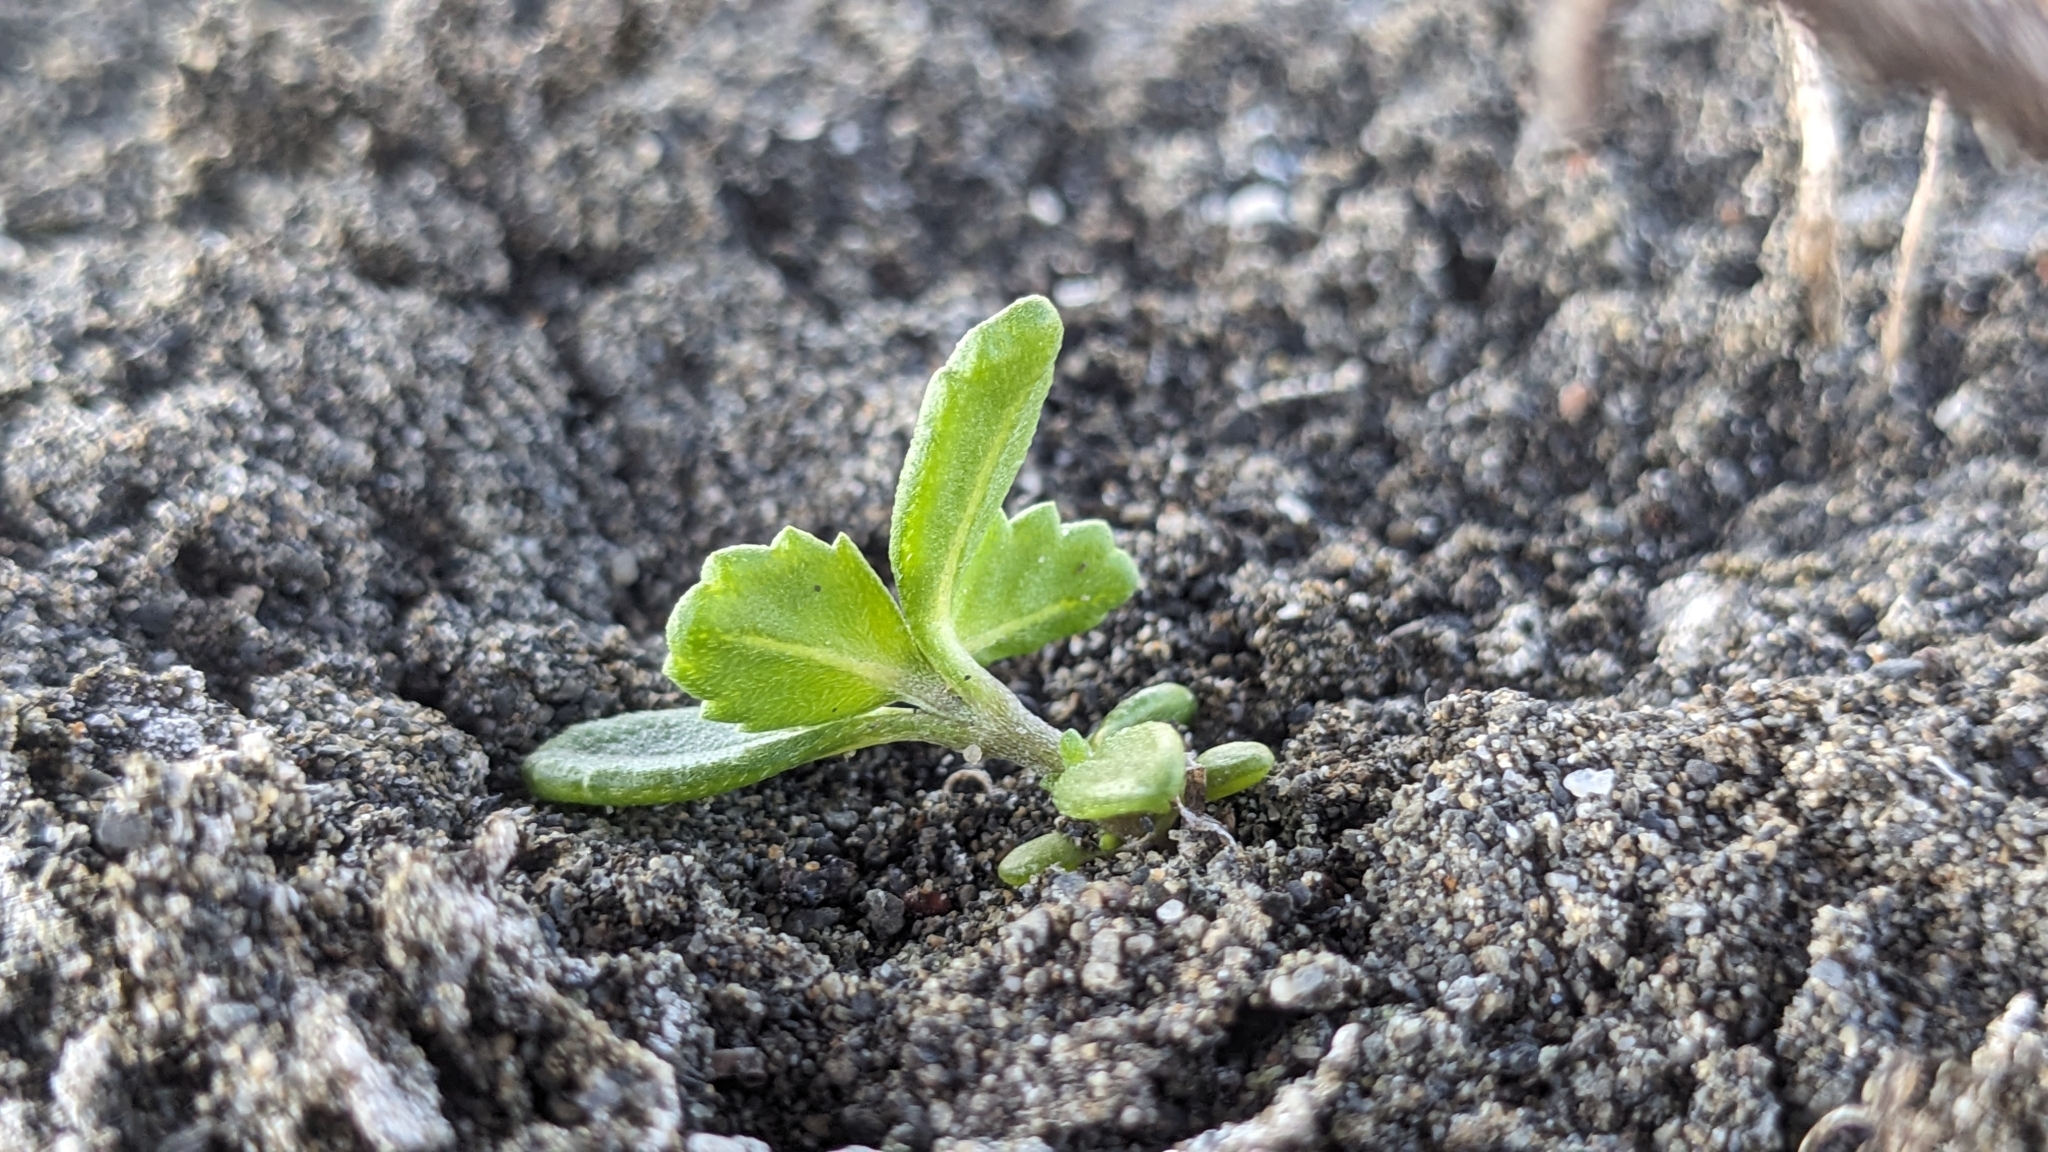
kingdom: Plantae
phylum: Tracheophyta
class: Magnoliopsida
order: Asterales
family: Asteraceae
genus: Melanthera
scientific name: Melanthera prostrata
